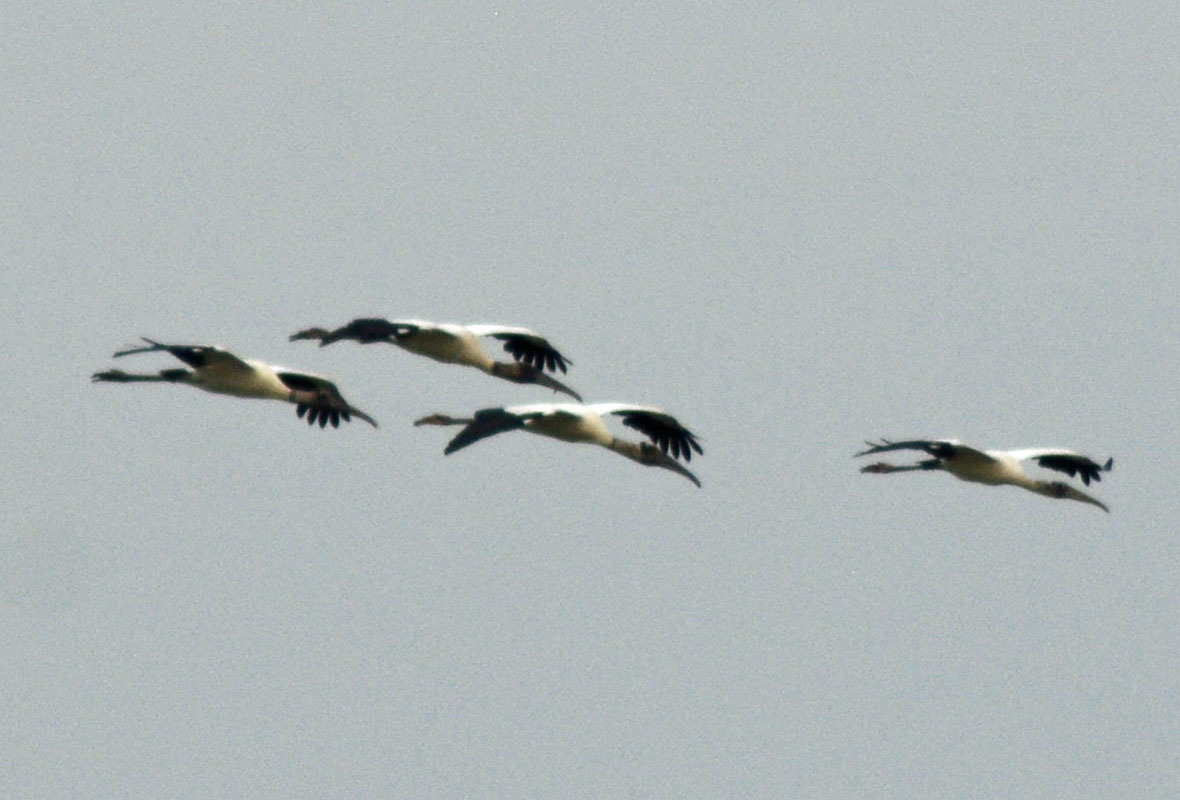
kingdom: Animalia
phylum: Chordata
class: Aves
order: Ciconiiformes
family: Ciconiidae
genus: Mycteria
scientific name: Mycteria americana
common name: Wood stork
